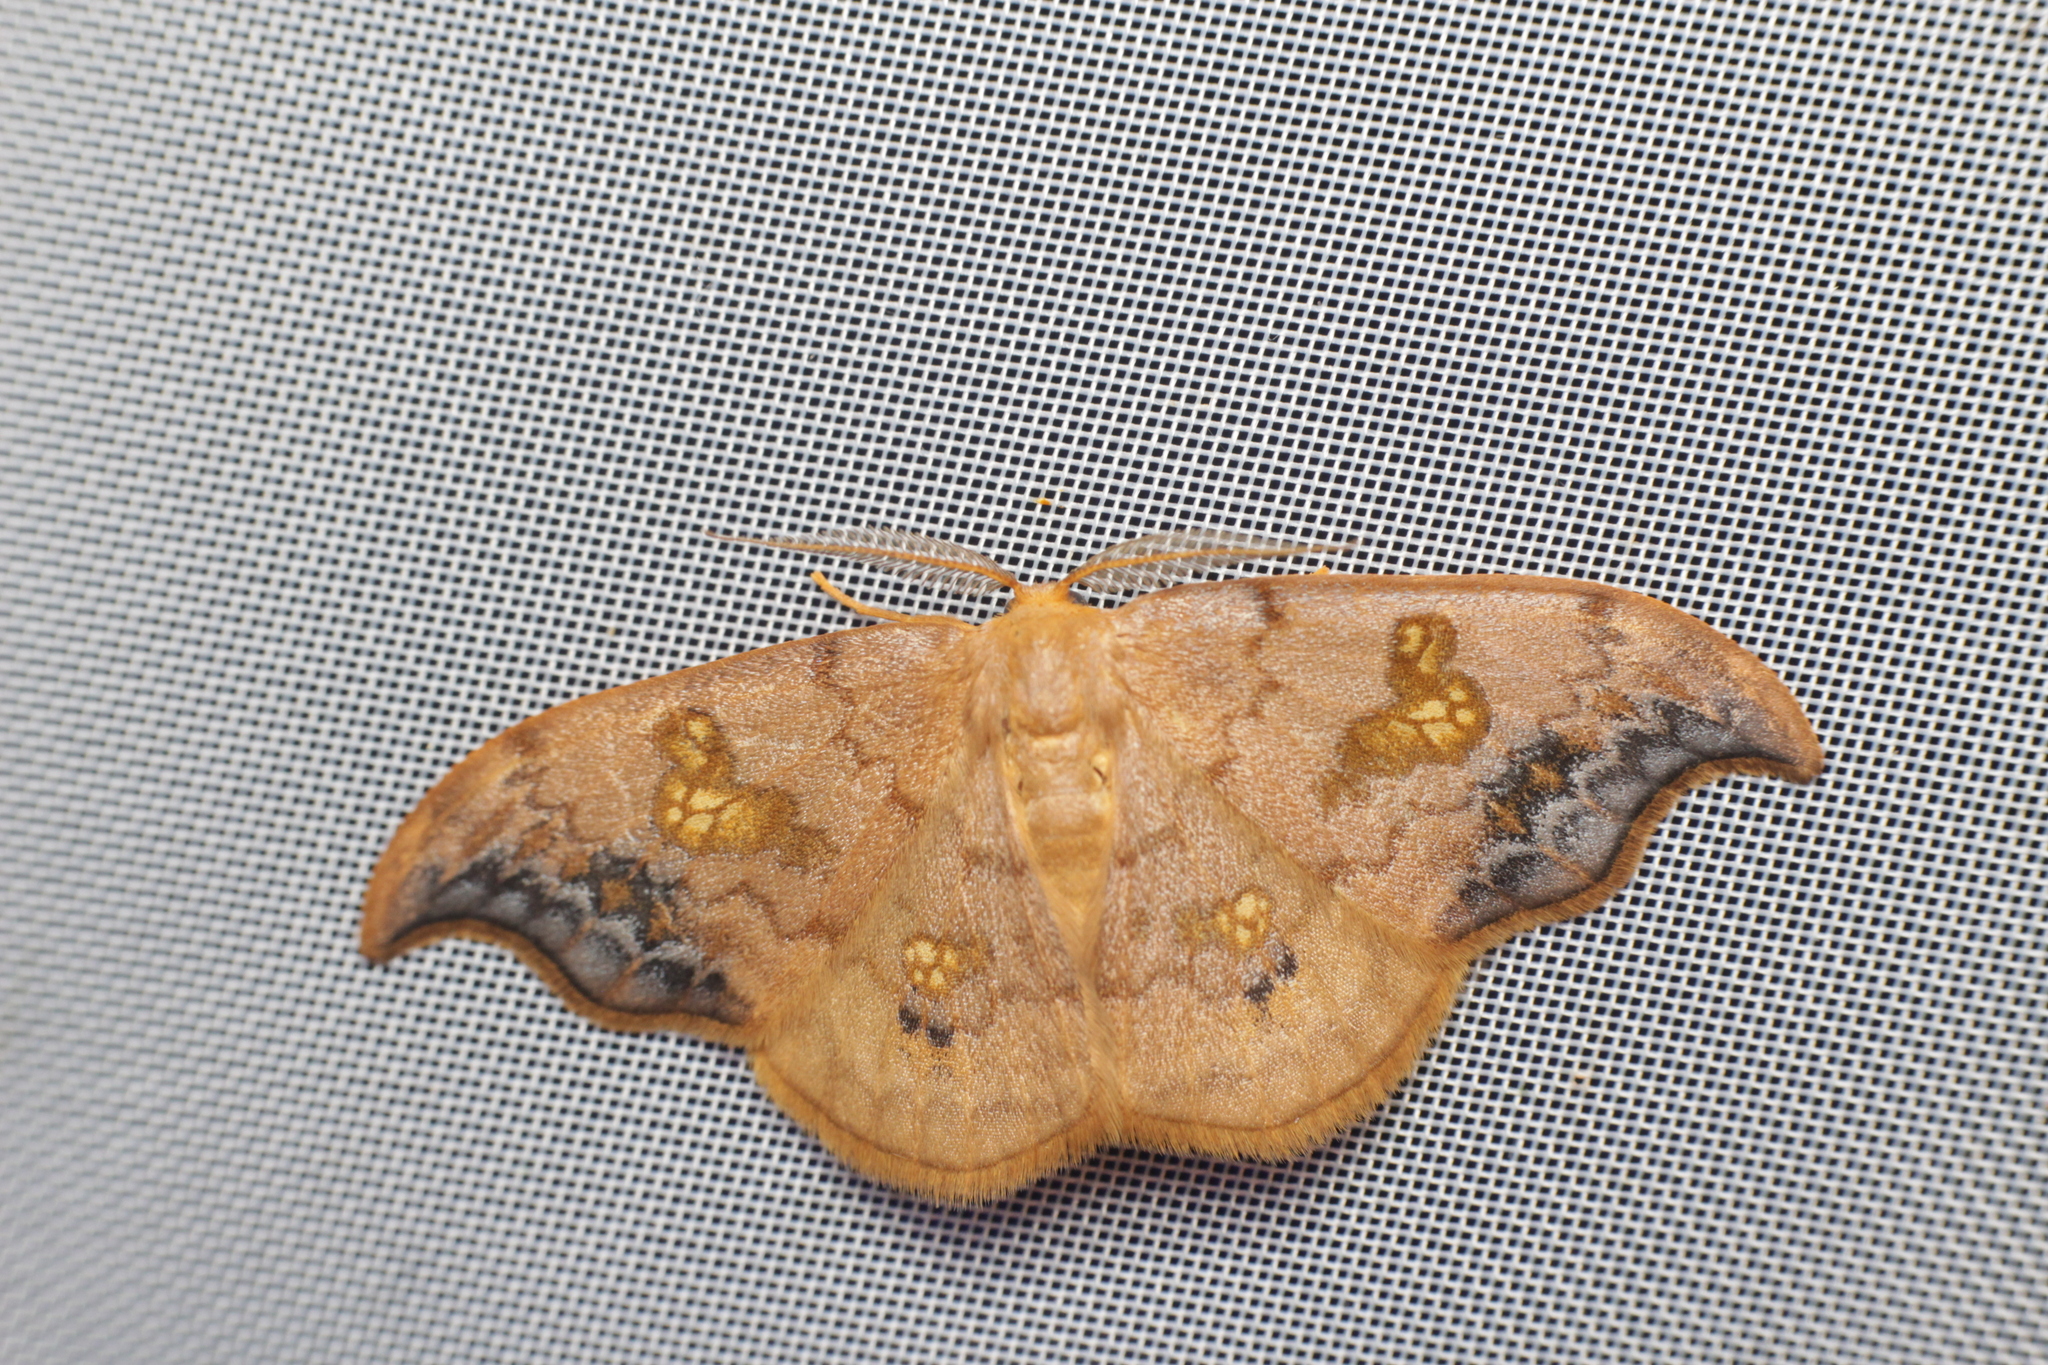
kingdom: Animalia
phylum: Arthropoda
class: Insecta
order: Lepidoptera
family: Drepanidae
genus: Sabra
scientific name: Sabra harpagula
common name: Scarce hook-tip
